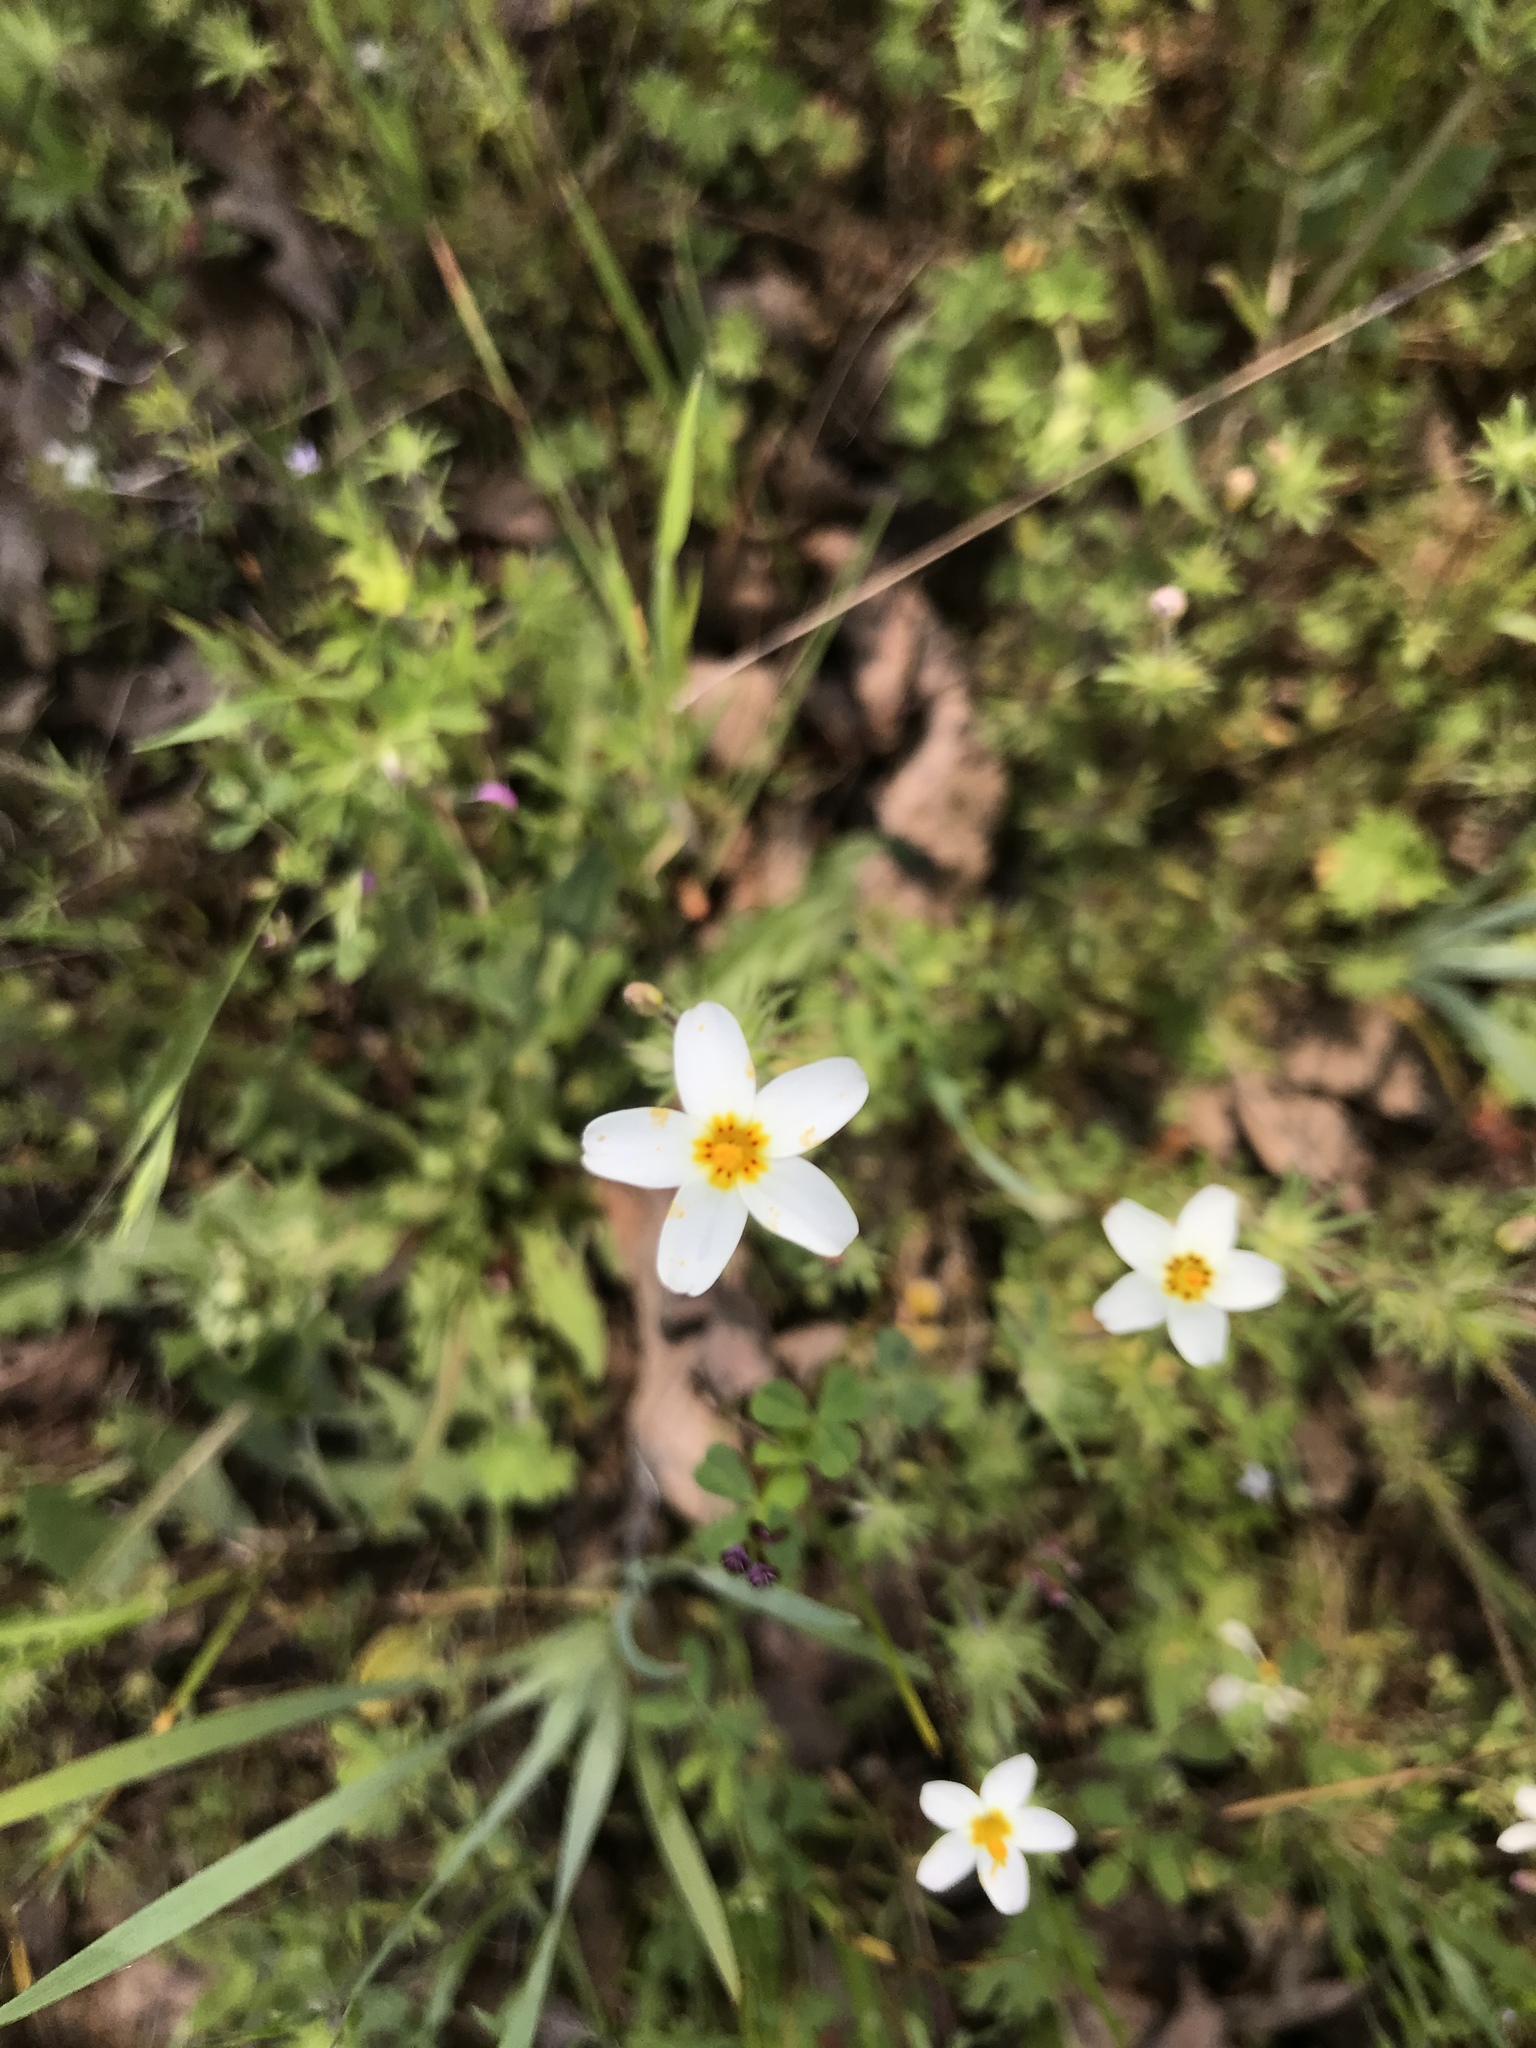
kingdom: Plantae
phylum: Tracheophyta
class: Magnoliopsida
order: Ericales
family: Polemoniaceae
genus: Leptosiphon
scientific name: Leptosiphon parviflorus
